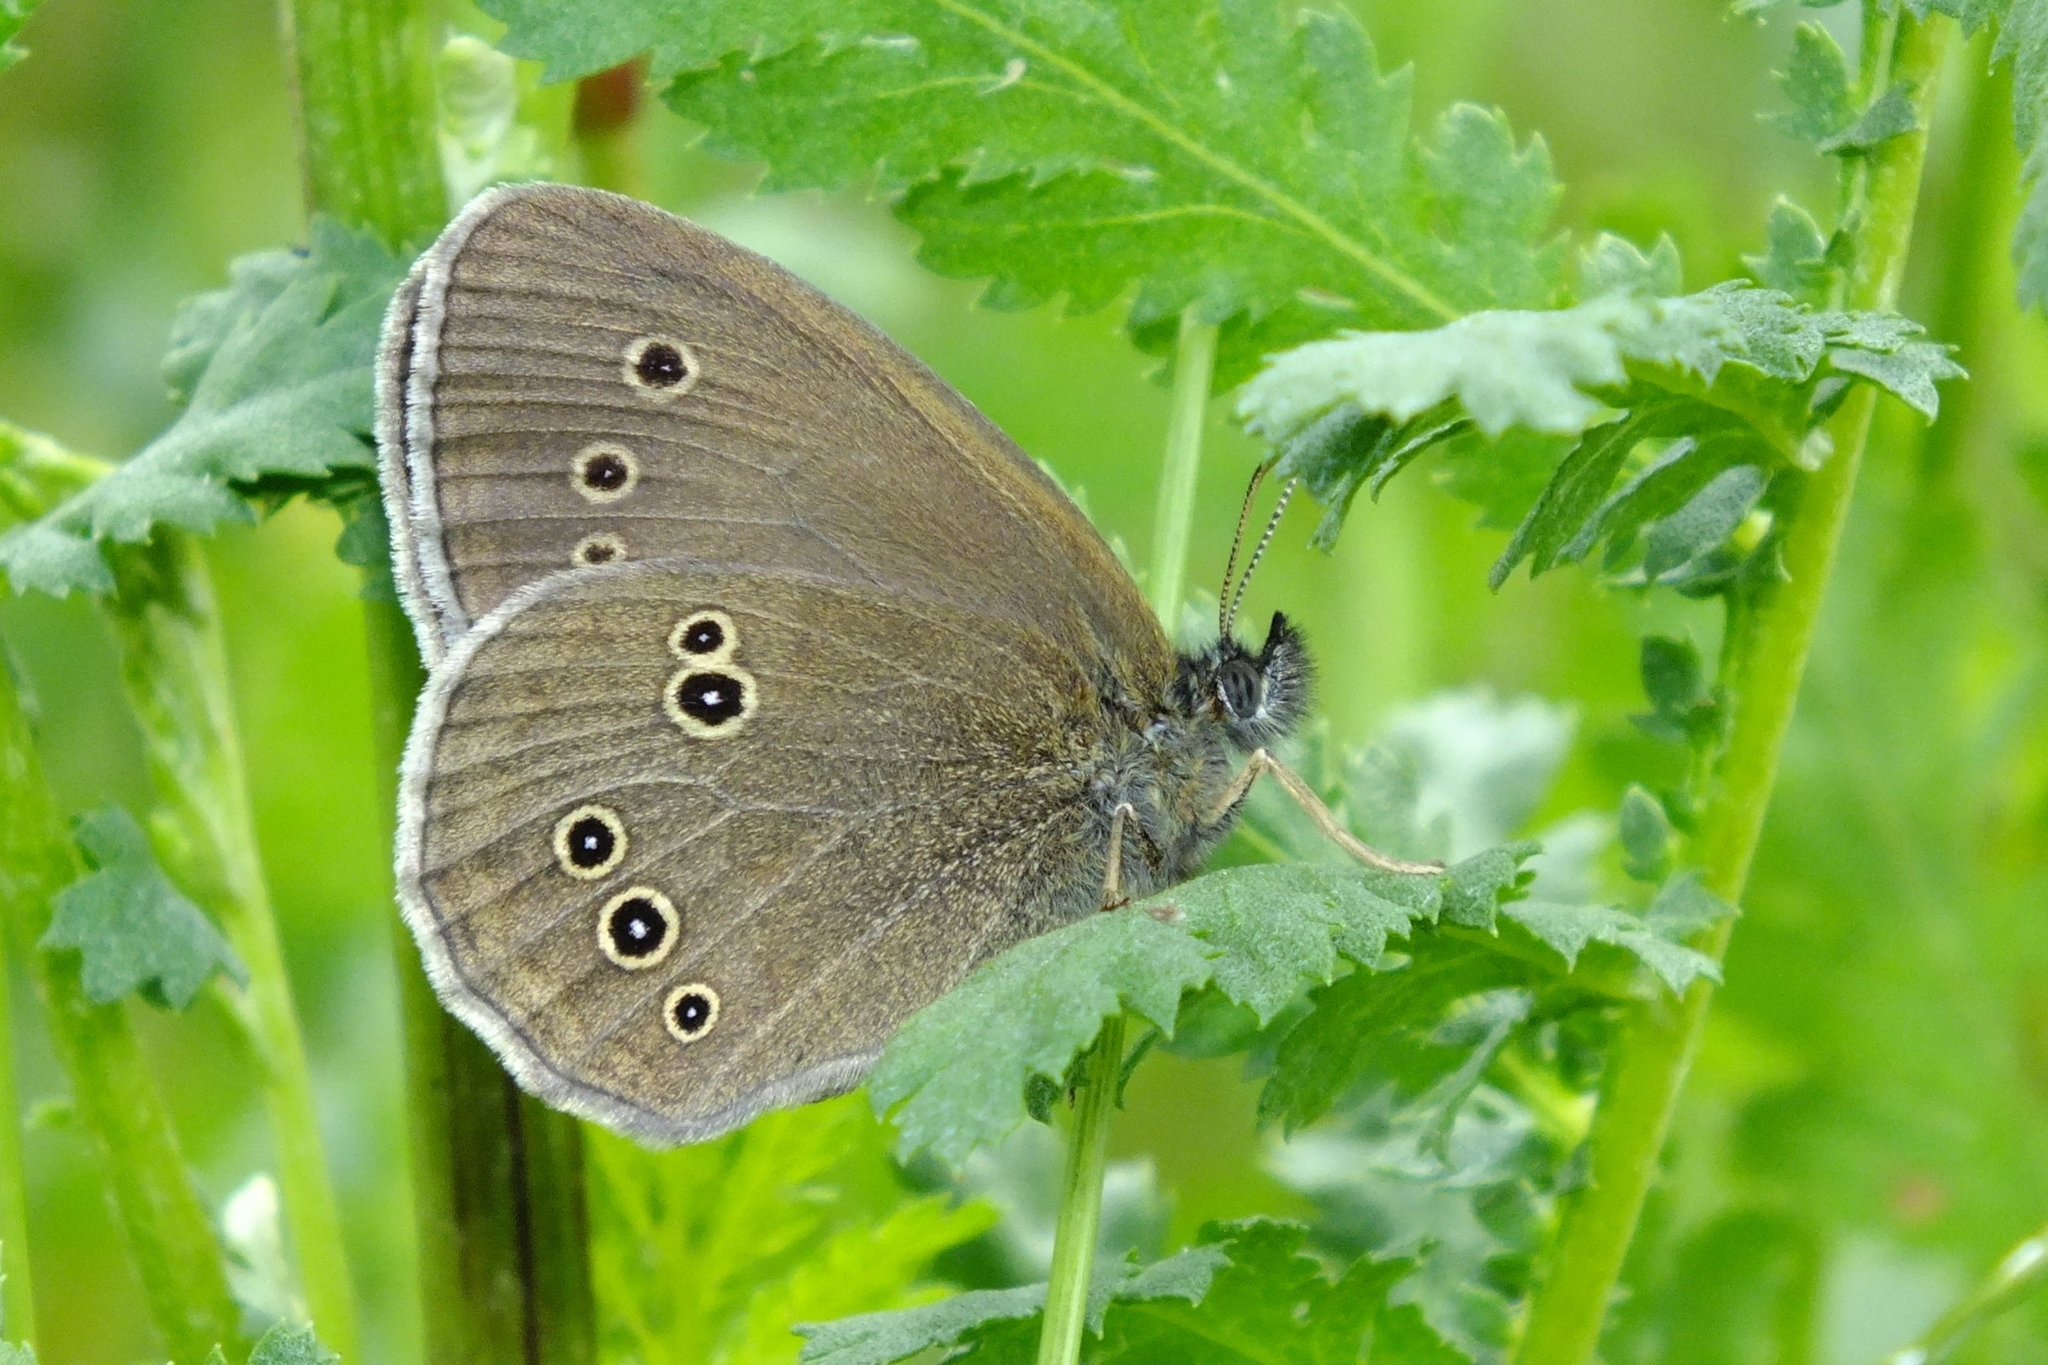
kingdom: Animalia
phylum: Arthropoda
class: Insecta
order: Lepidoptera
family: Nymphalidae
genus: Aphantopus
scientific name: Aphantopus hyperantus
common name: Ringlet
